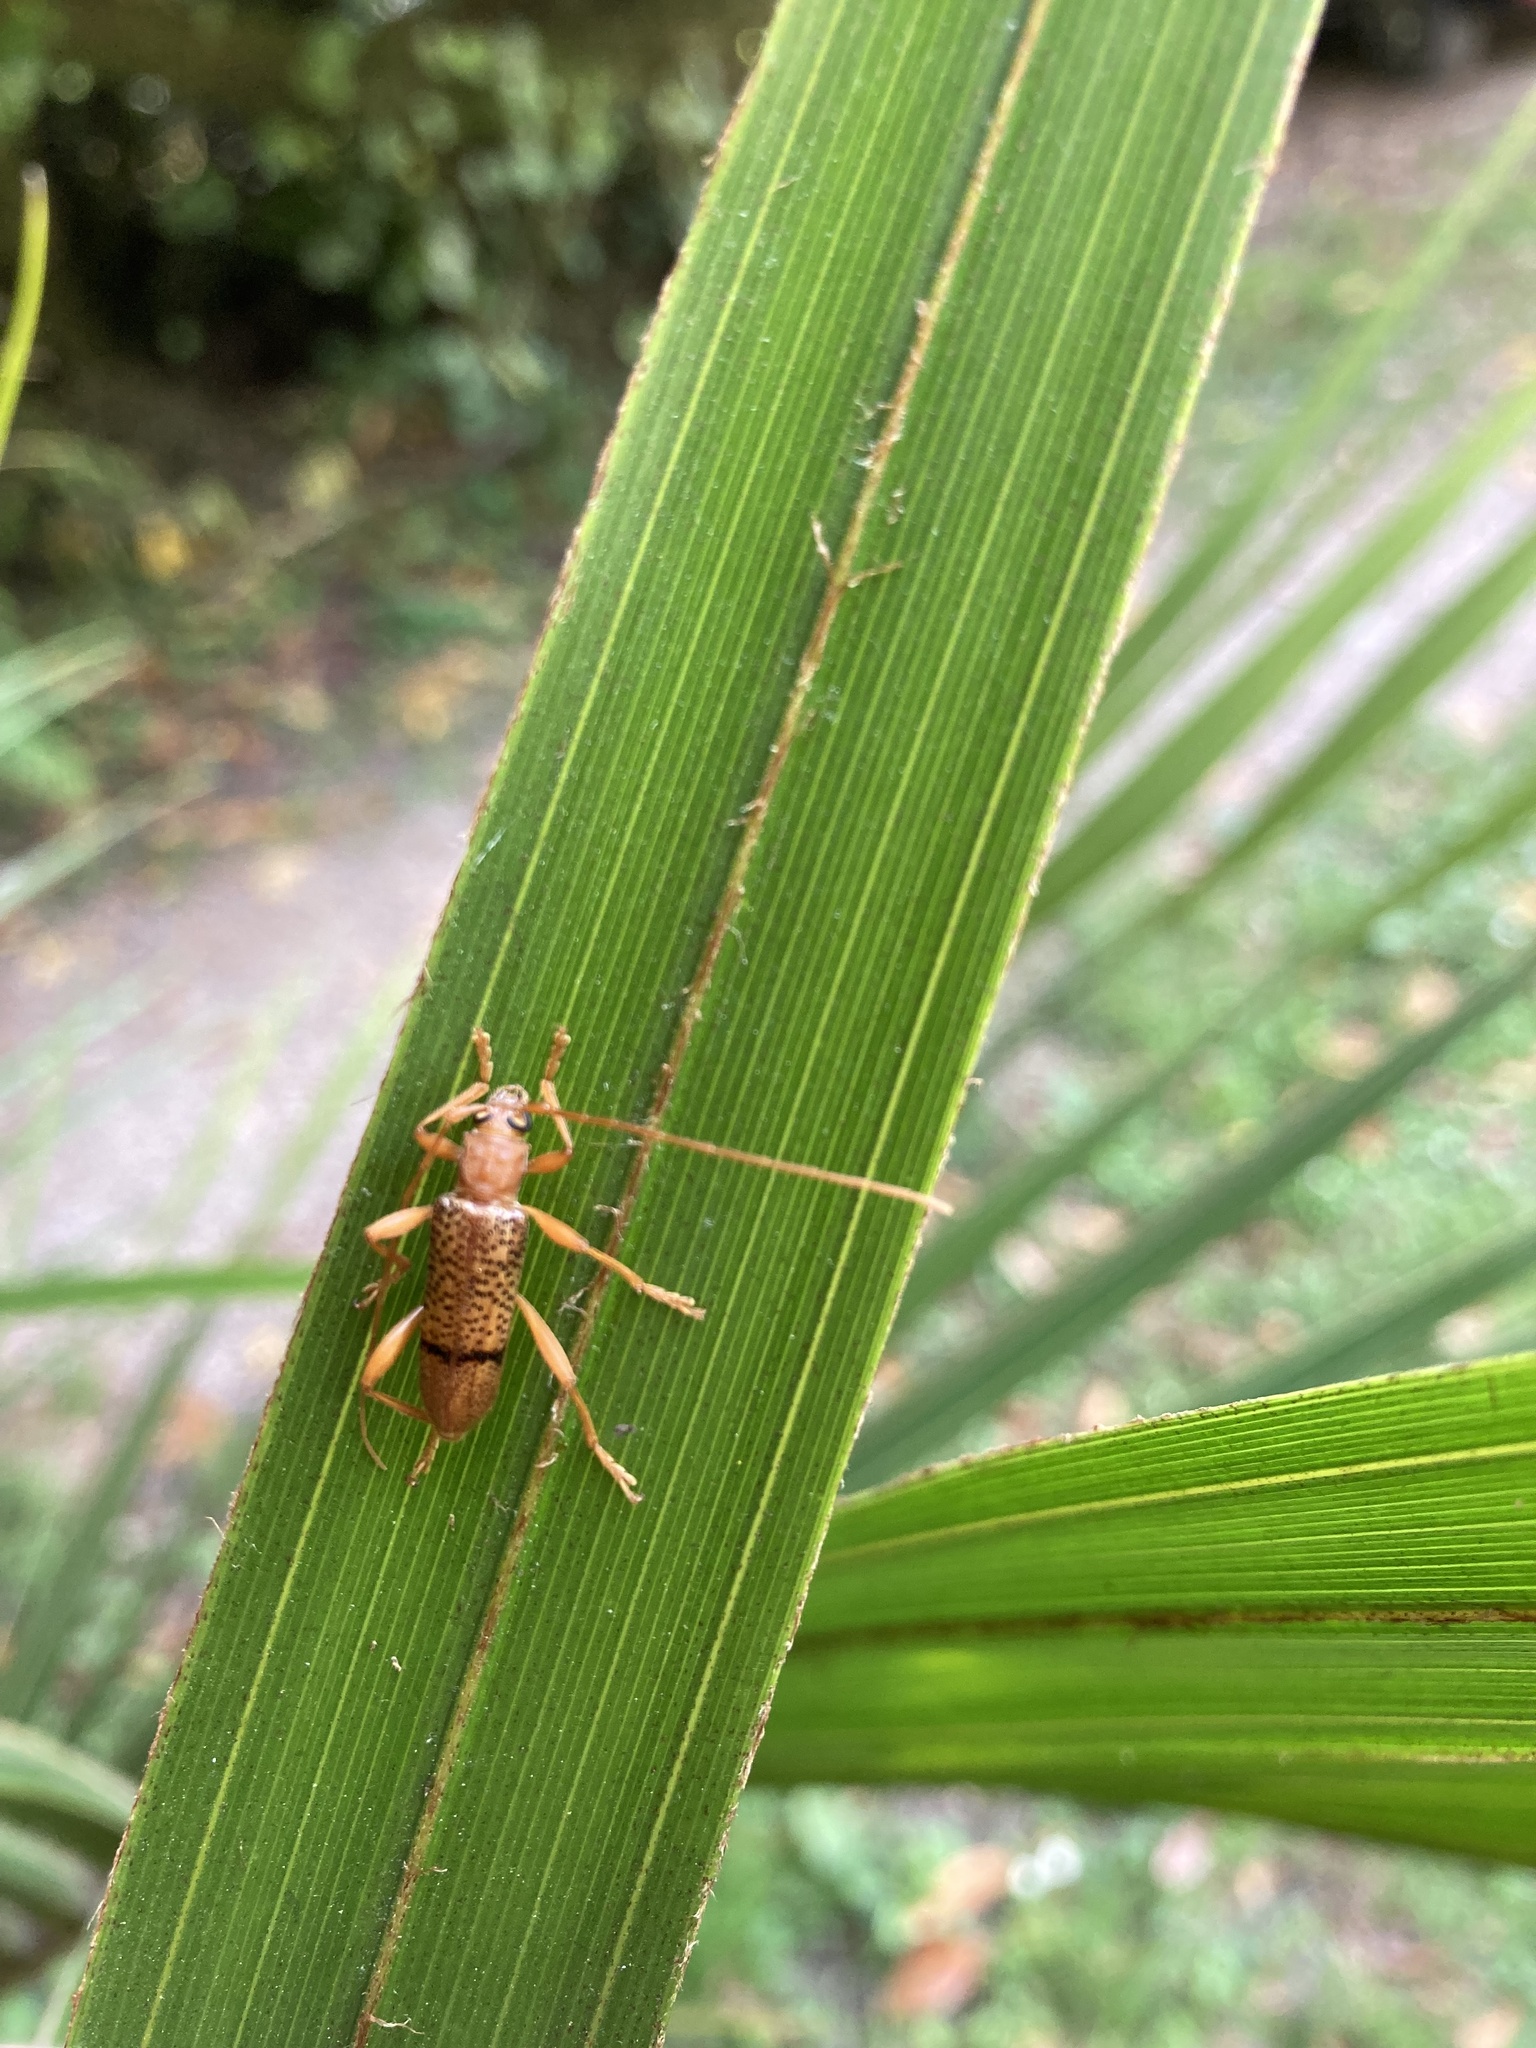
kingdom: Animalia
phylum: Arthropoda
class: Insecta
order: Coleoptera
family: Cerambycidae
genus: Xuthodes
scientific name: Xuthodes punctipennis
